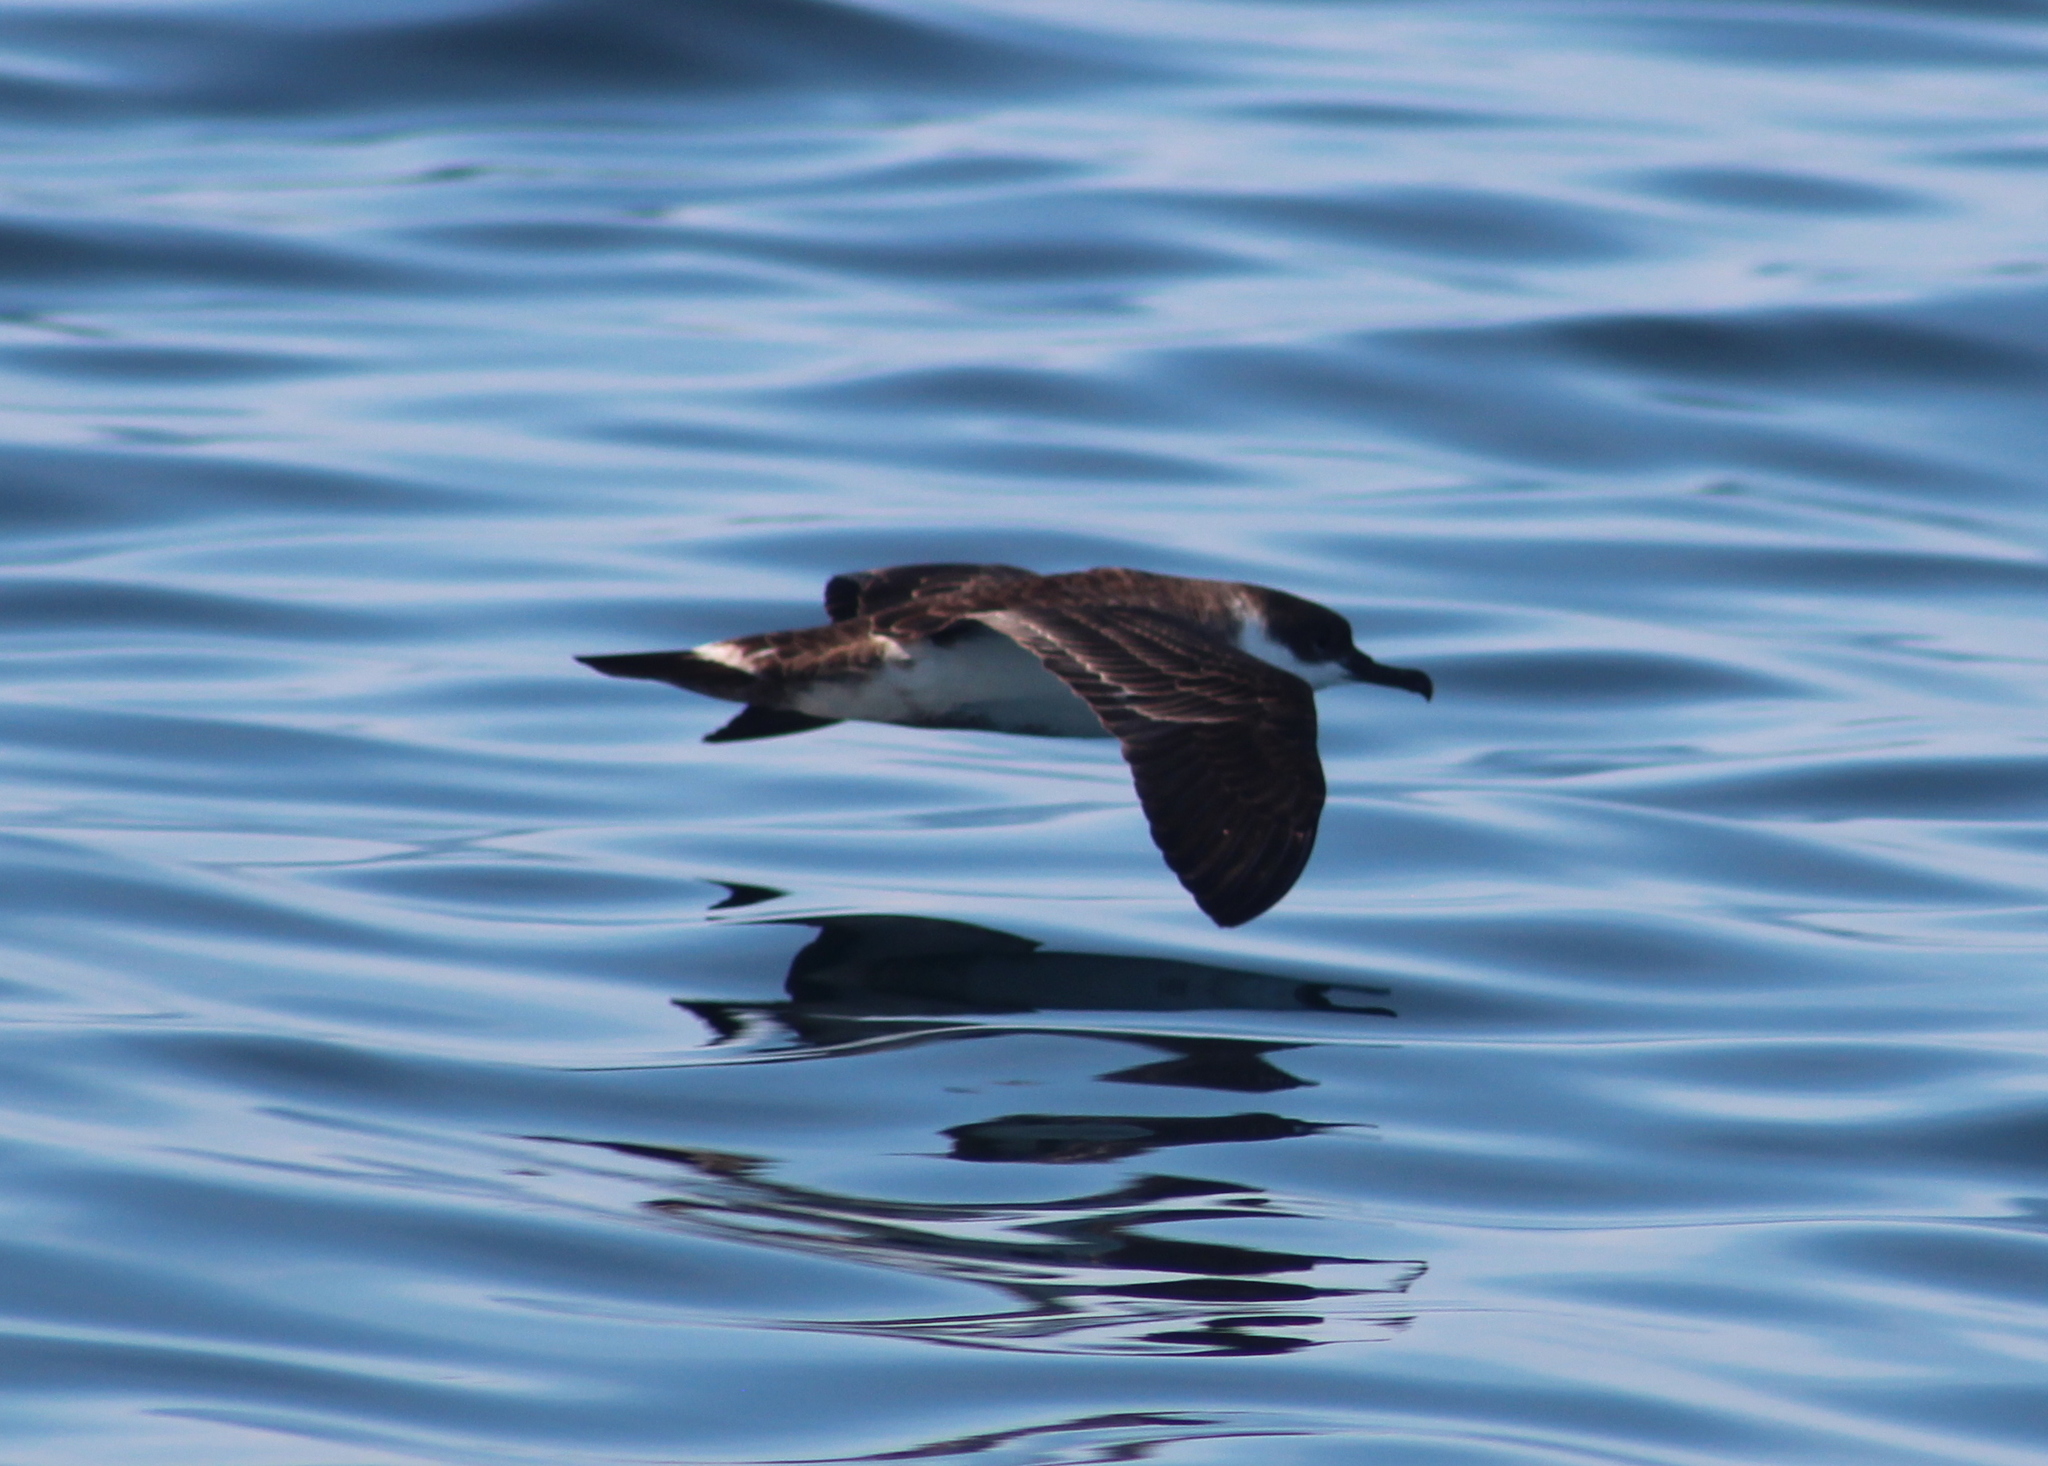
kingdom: Animalia
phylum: Chordata
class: Aves
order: Procellariiformes
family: Procellariidae
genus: Puffinus
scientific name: Puffinus gravis
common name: Great shearwater
